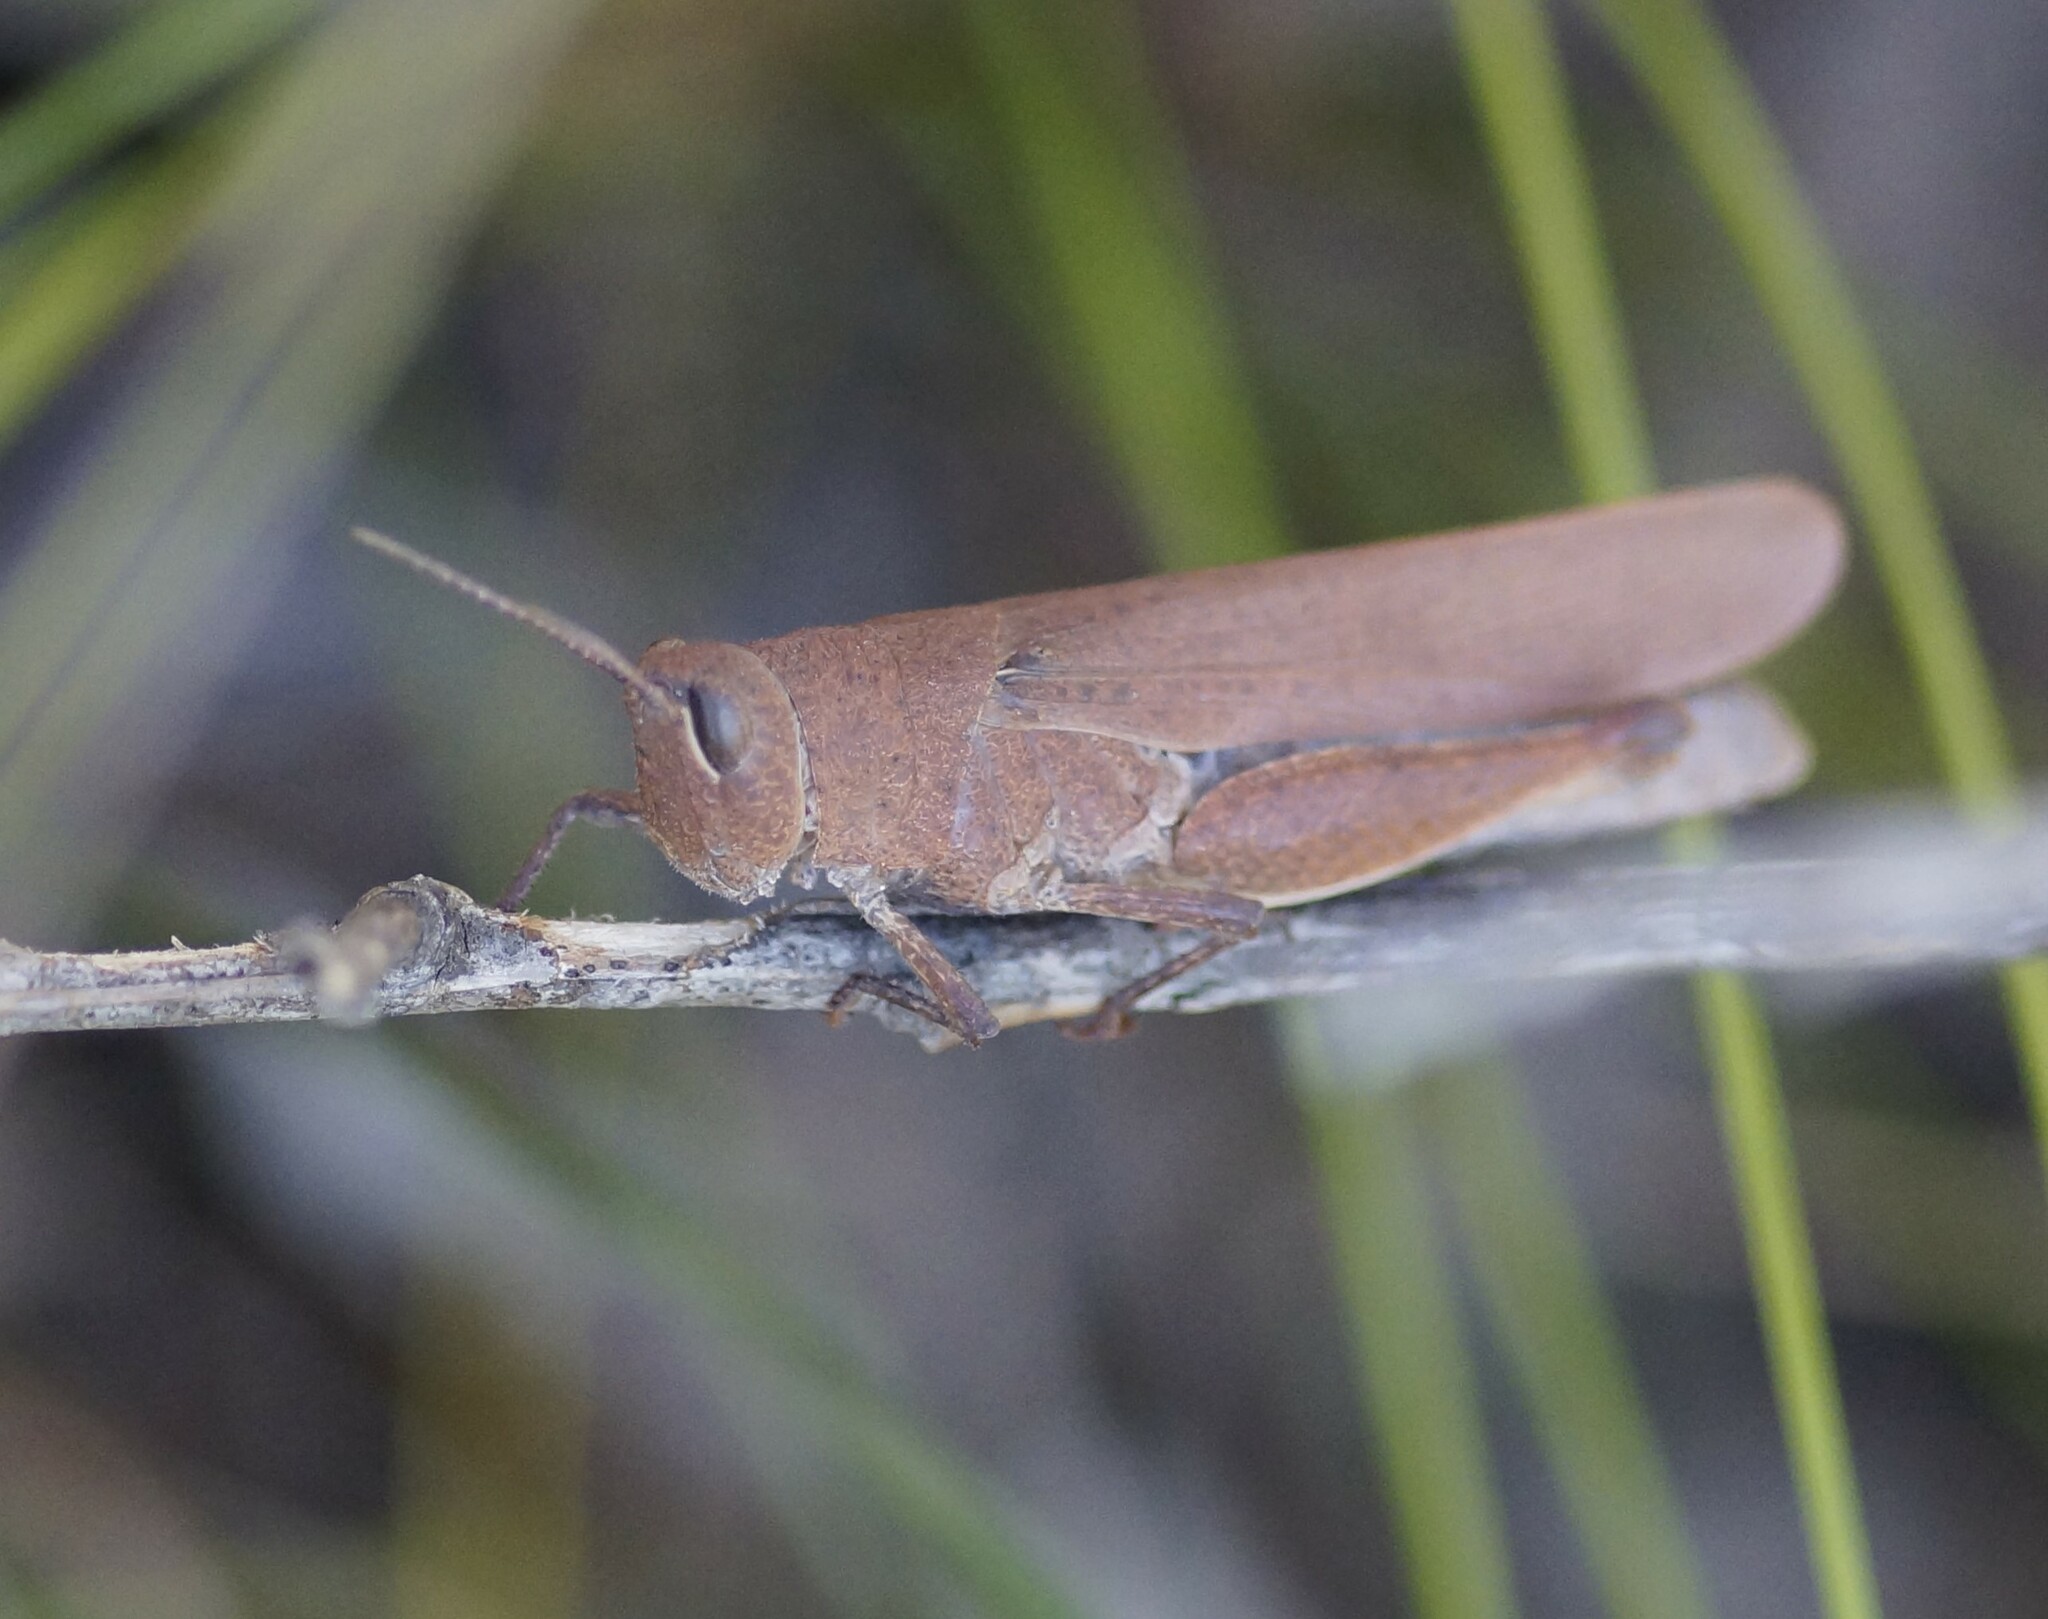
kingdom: Animalia
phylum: Arthropoda
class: Insecta
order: Orthoptera
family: Acrididae
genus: Goniaea
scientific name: Goniaea opomaloides
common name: Mimetic gumleaf grasshopper
